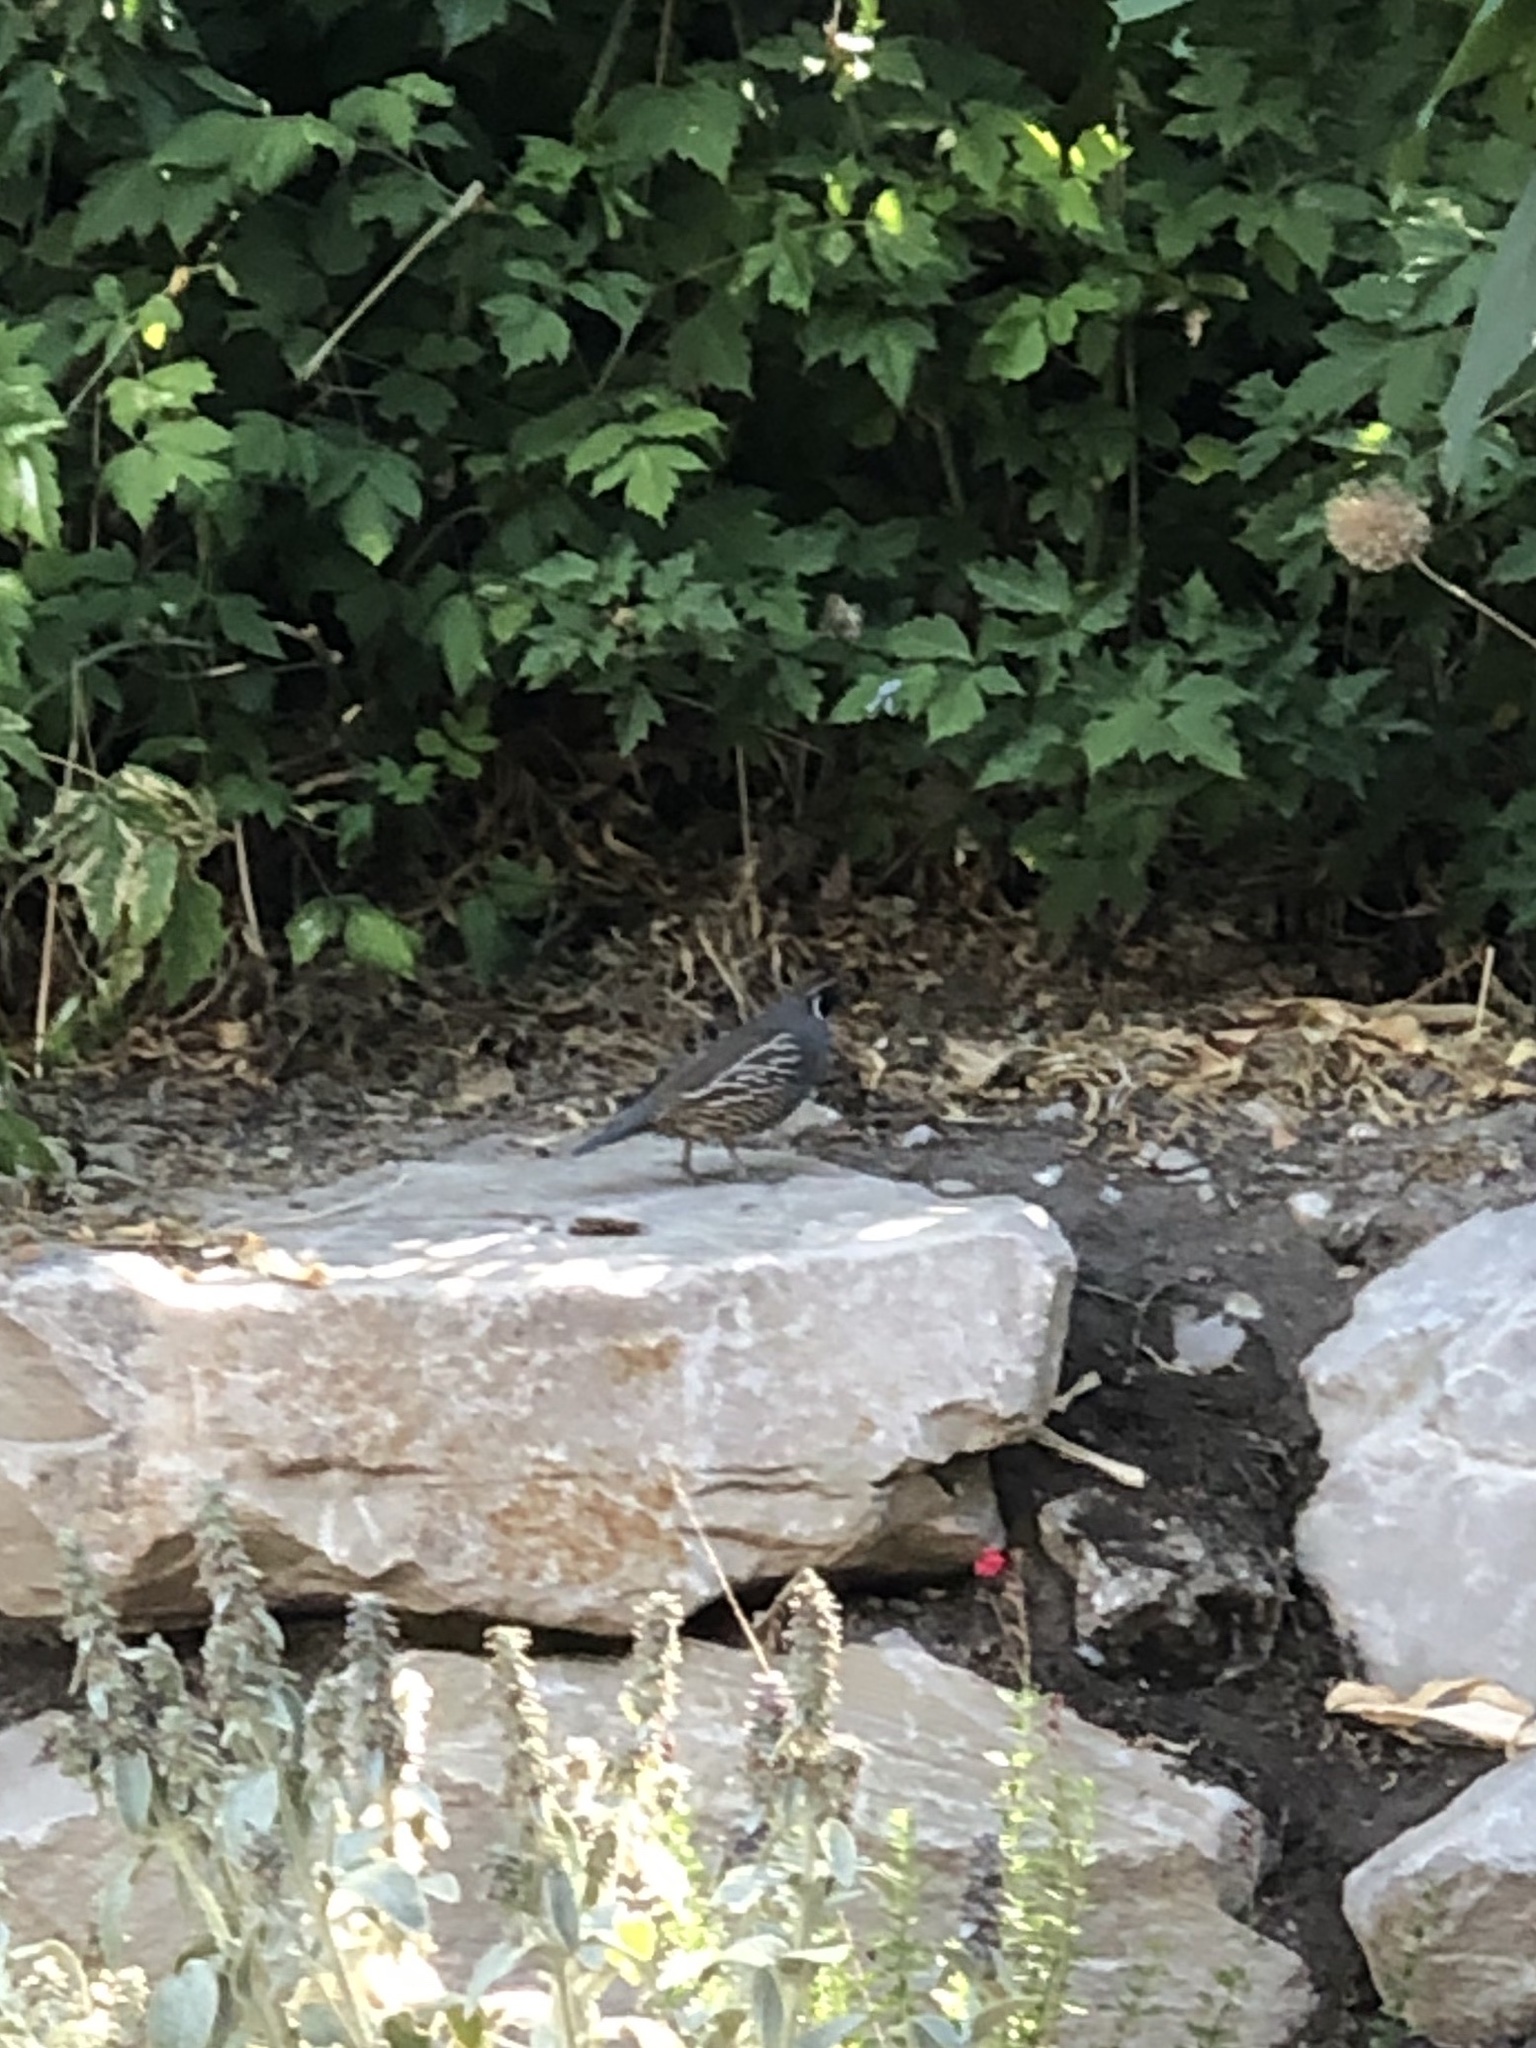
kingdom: Animalia
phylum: Chordata
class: Aves
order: Galliformes
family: Odontophoridae
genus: Callipepla
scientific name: Callipepla californica
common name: California quail
